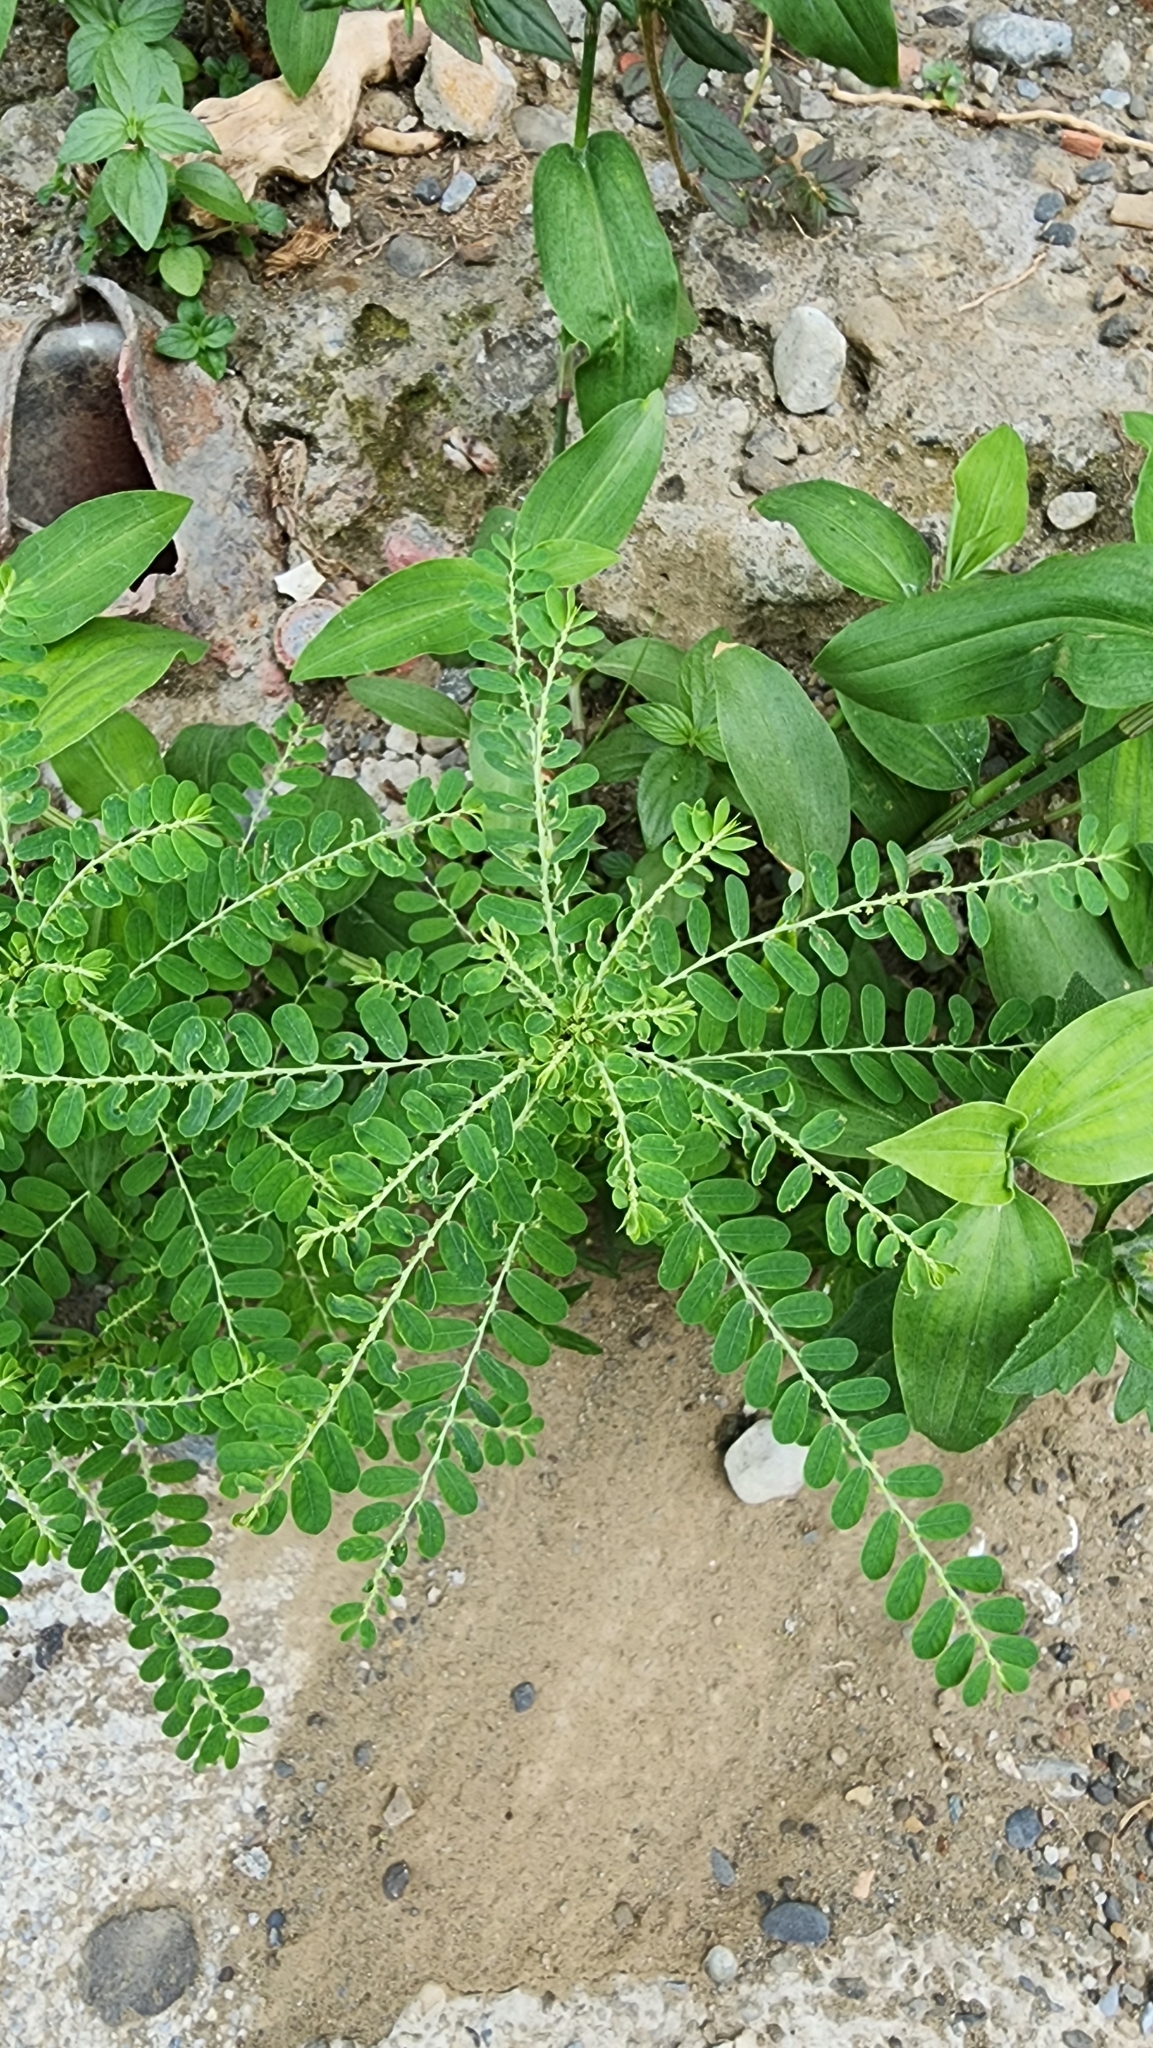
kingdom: Plantae
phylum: Tracheophyta
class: Magnoliopsida
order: Malpighiales
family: Phyllanthaceae
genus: Phyllanthus
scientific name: Phyllanthus amarus
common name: Carry me seed
